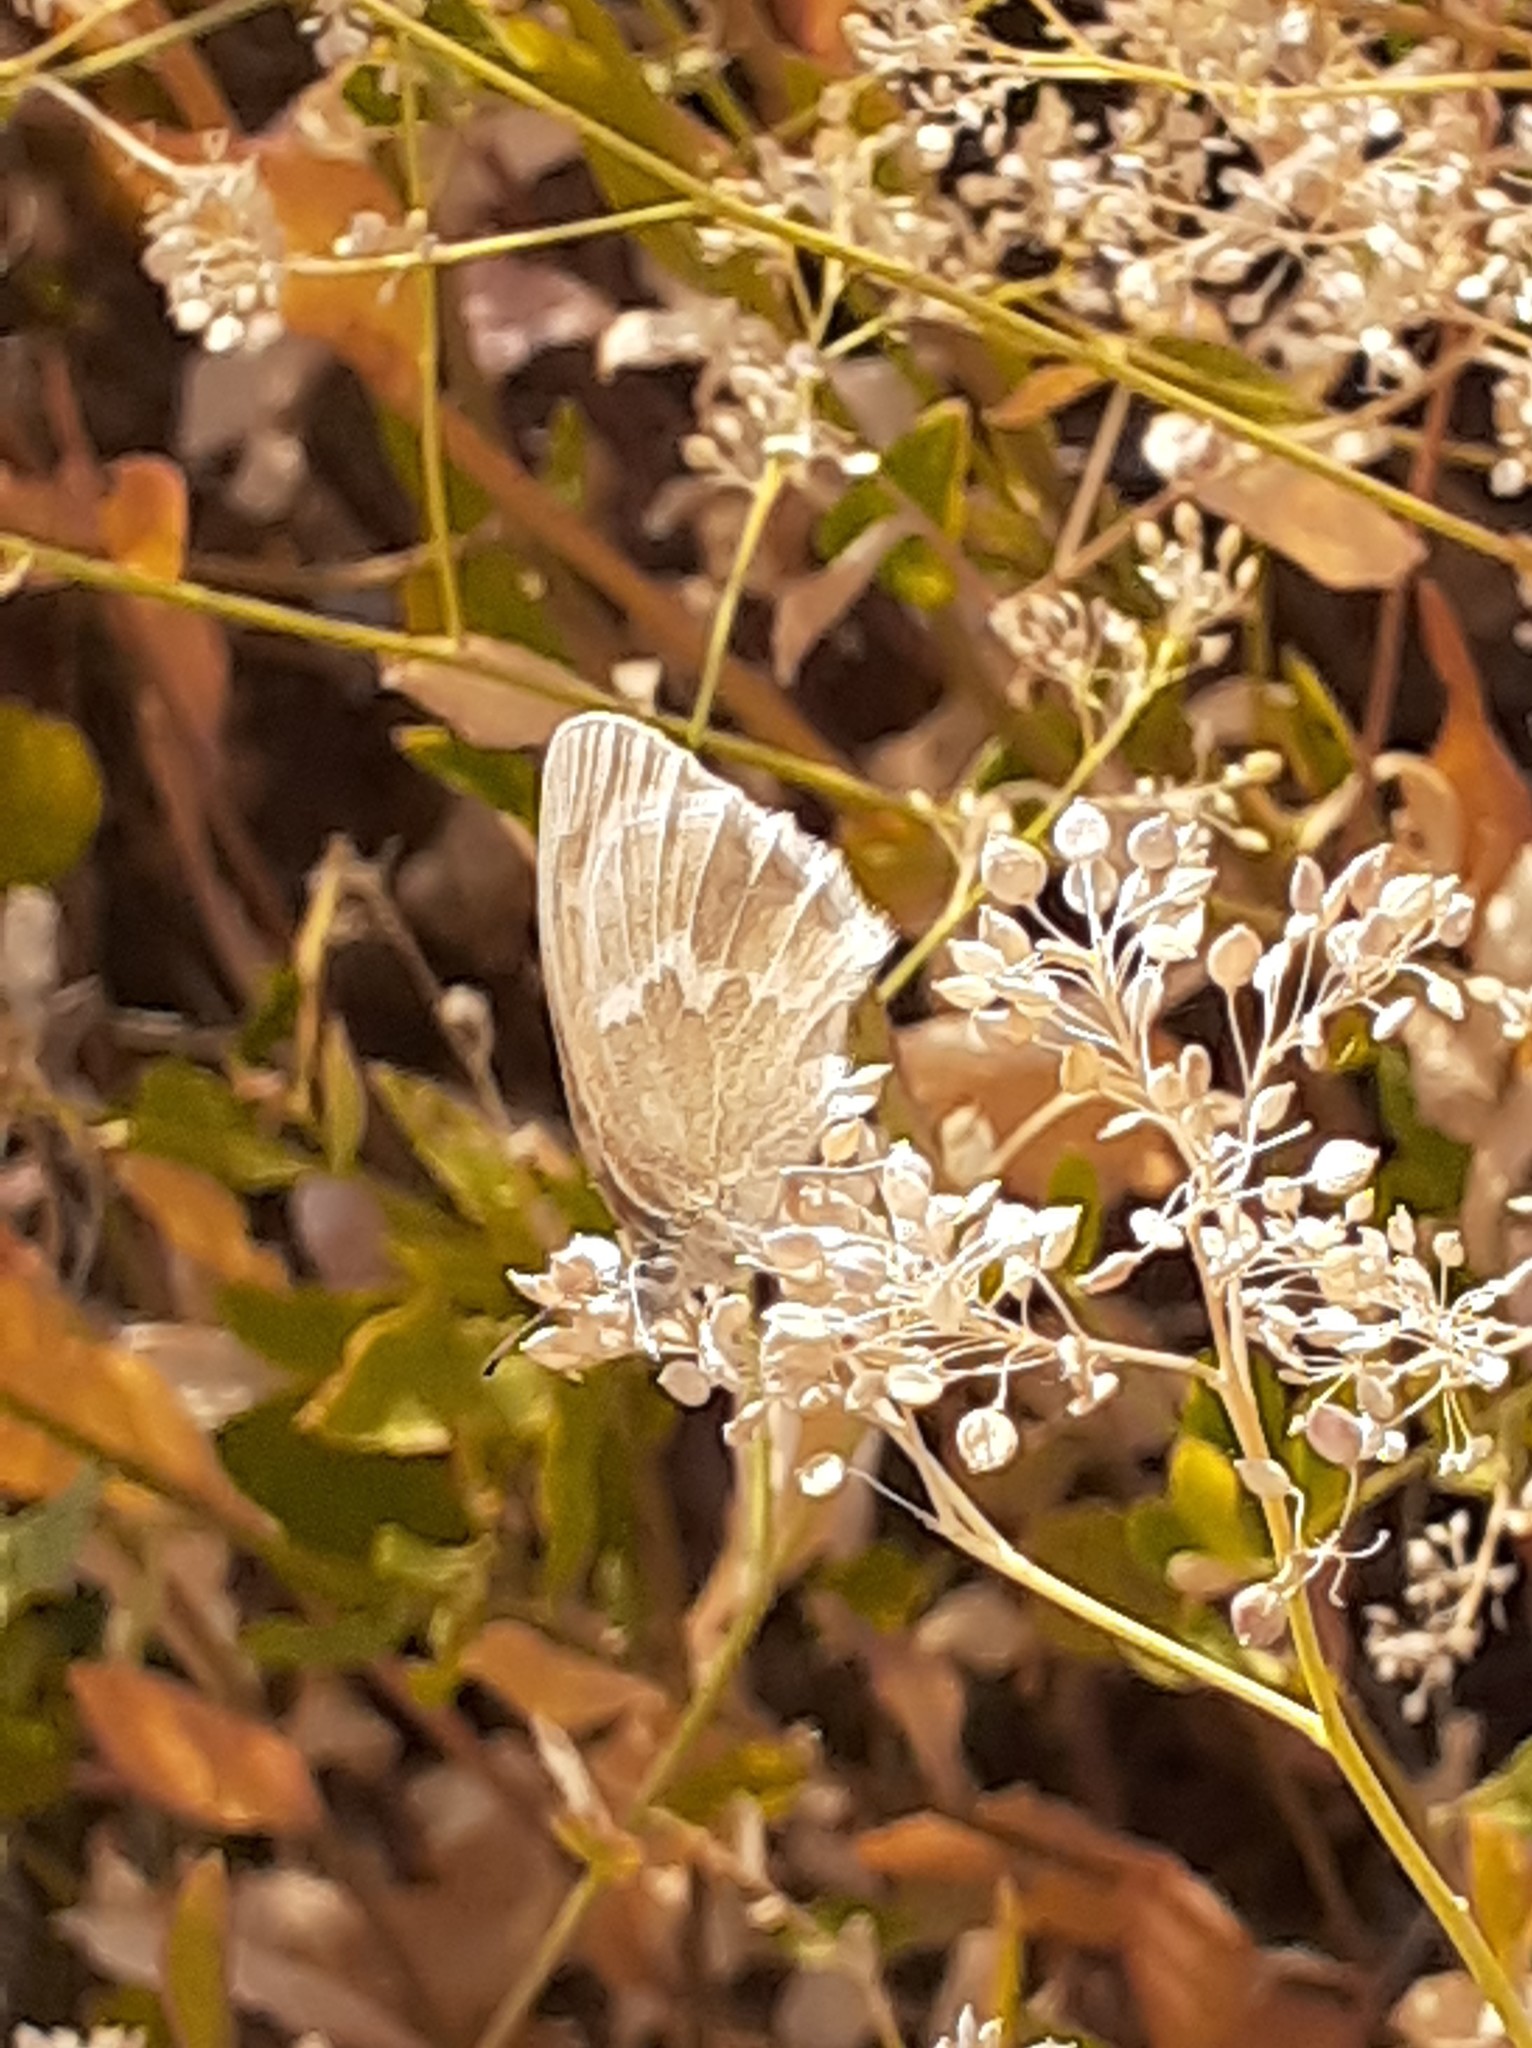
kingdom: Animalia
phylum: Arthropoda
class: Insecta
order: Lepidoptera
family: Nymphalidae
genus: Coenonympha
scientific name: Coenonympha california
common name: Common ringlet
